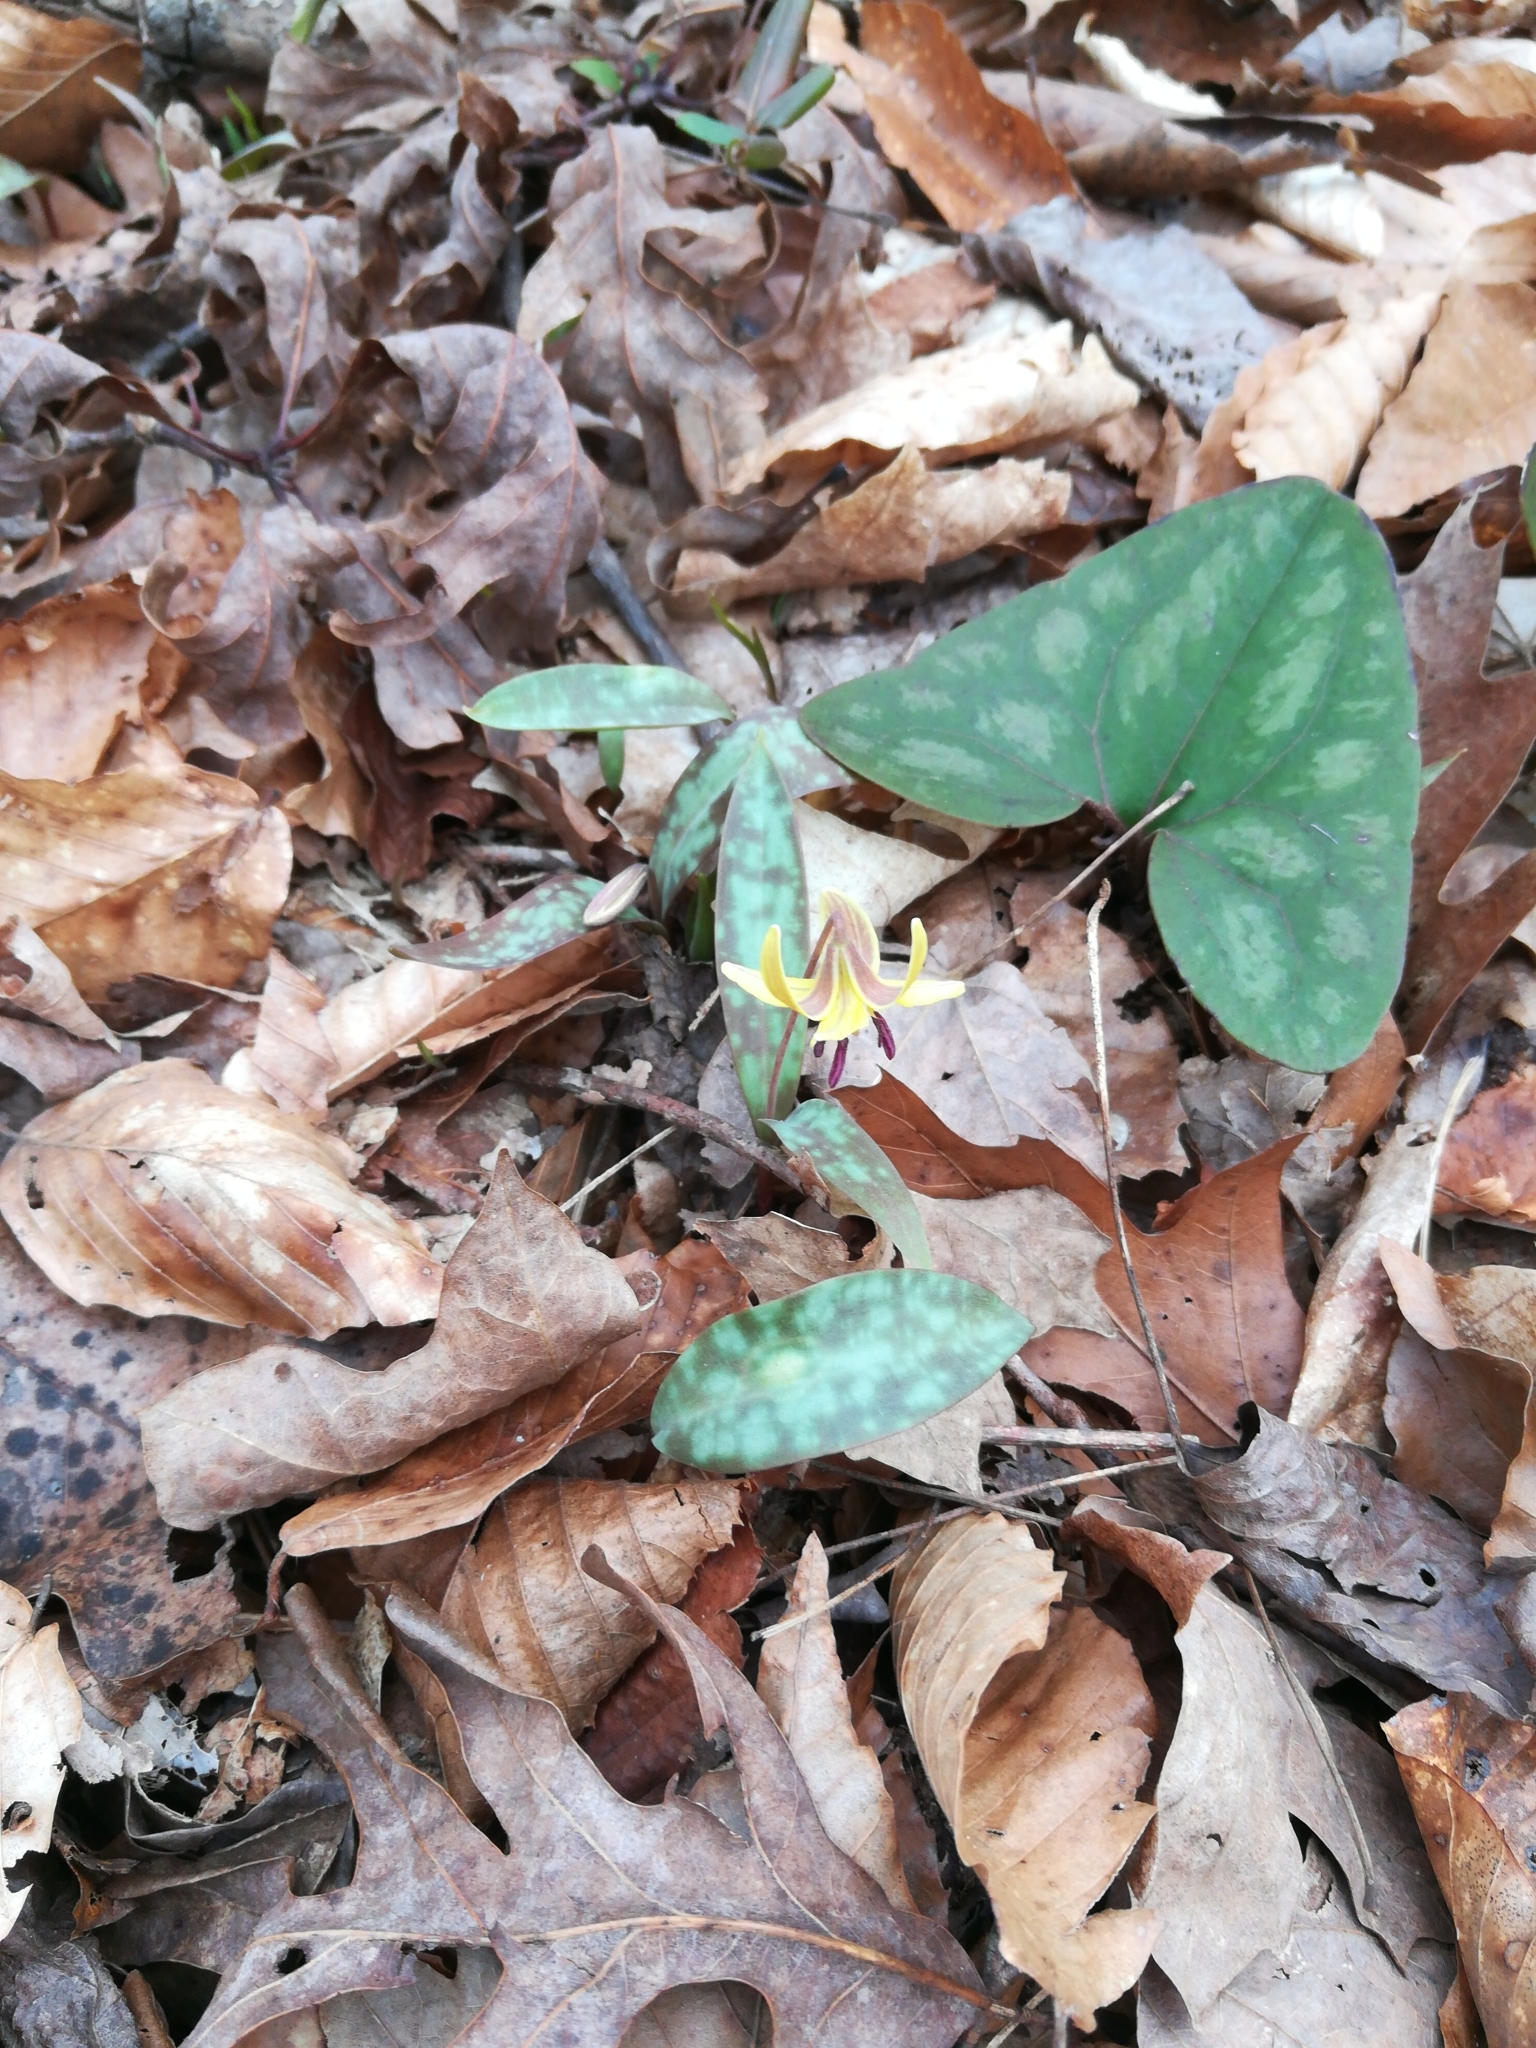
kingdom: Plantae
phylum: Tracheophyta
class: Liliopsida
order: Liliales
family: Liliaceae
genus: Erythronium
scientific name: Erythronium umbilicatum
